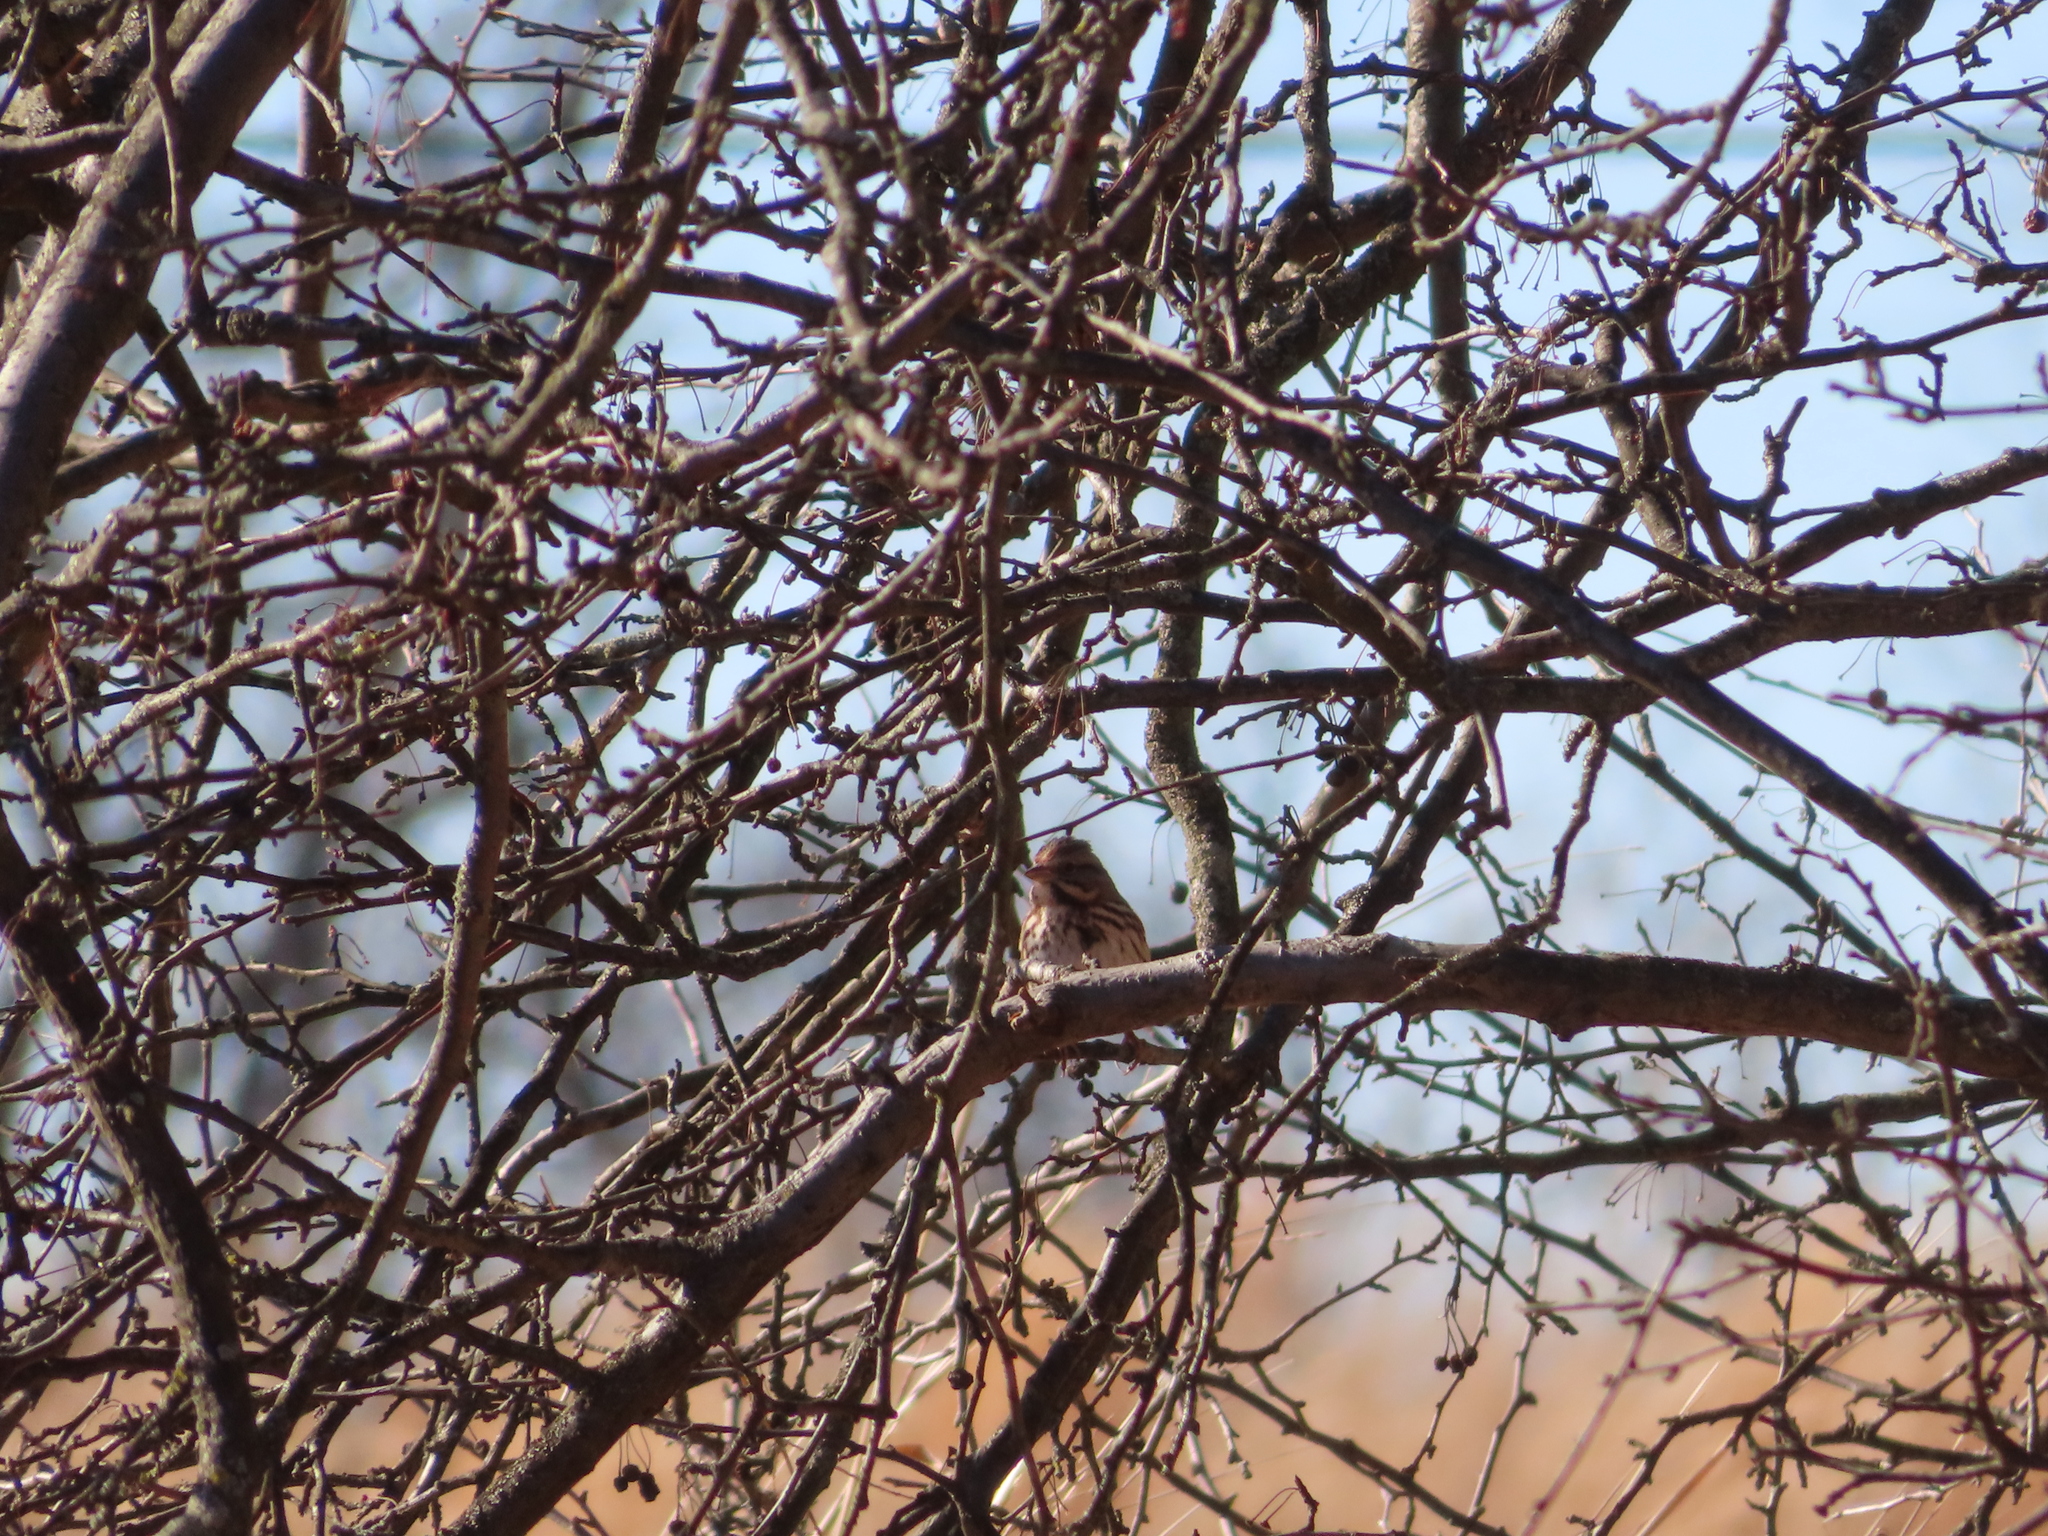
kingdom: Animalia
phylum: Chordata
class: Aves
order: Passeriformes
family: Passerellidae
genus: Melospiza
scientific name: Melospiza melodia
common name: Song sparrow
